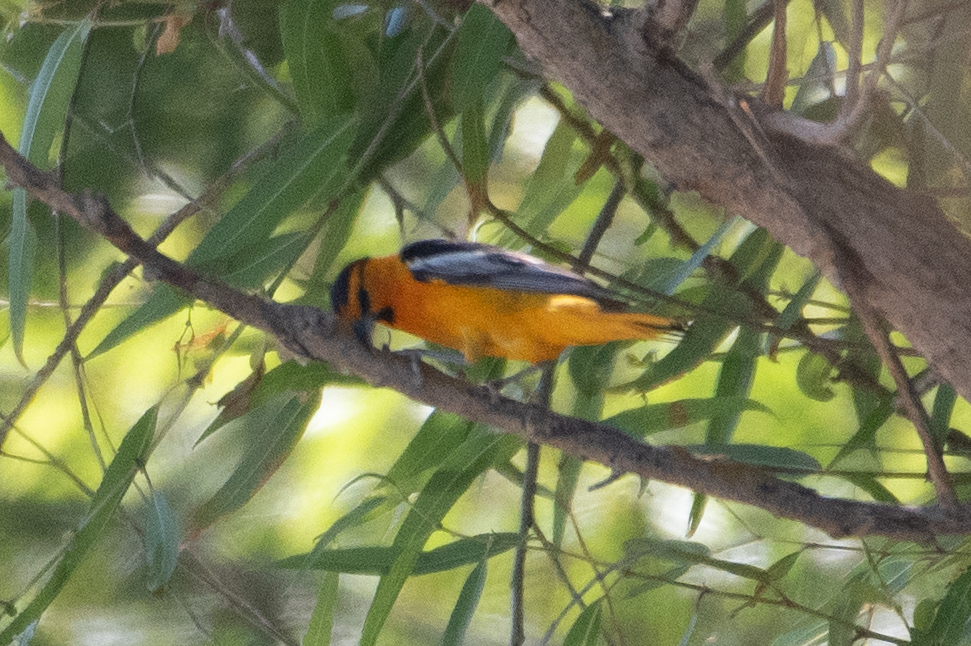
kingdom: Animalia
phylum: Chordata
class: Aves
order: Passeriformes
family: Icteridae
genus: Icterus
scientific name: Icterus bullockii
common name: Bullock's oriole
